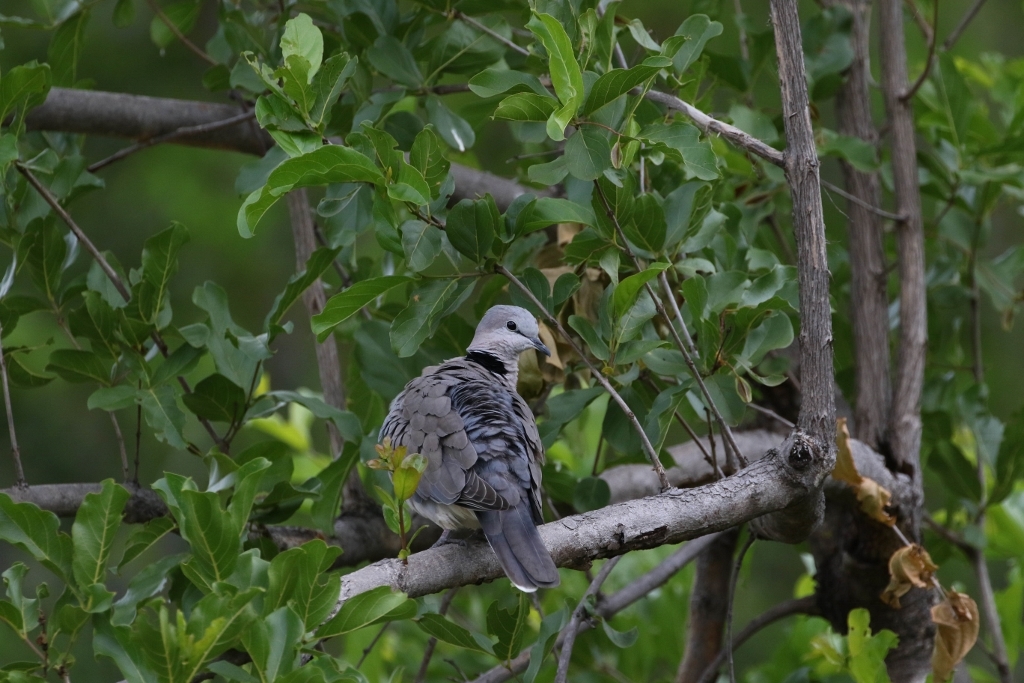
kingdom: Animalia
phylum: Chordata
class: Aves
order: Columbiformes
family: Columbidae
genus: Streptopelia
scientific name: Streptopelia capicola
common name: Ring-necked dove
